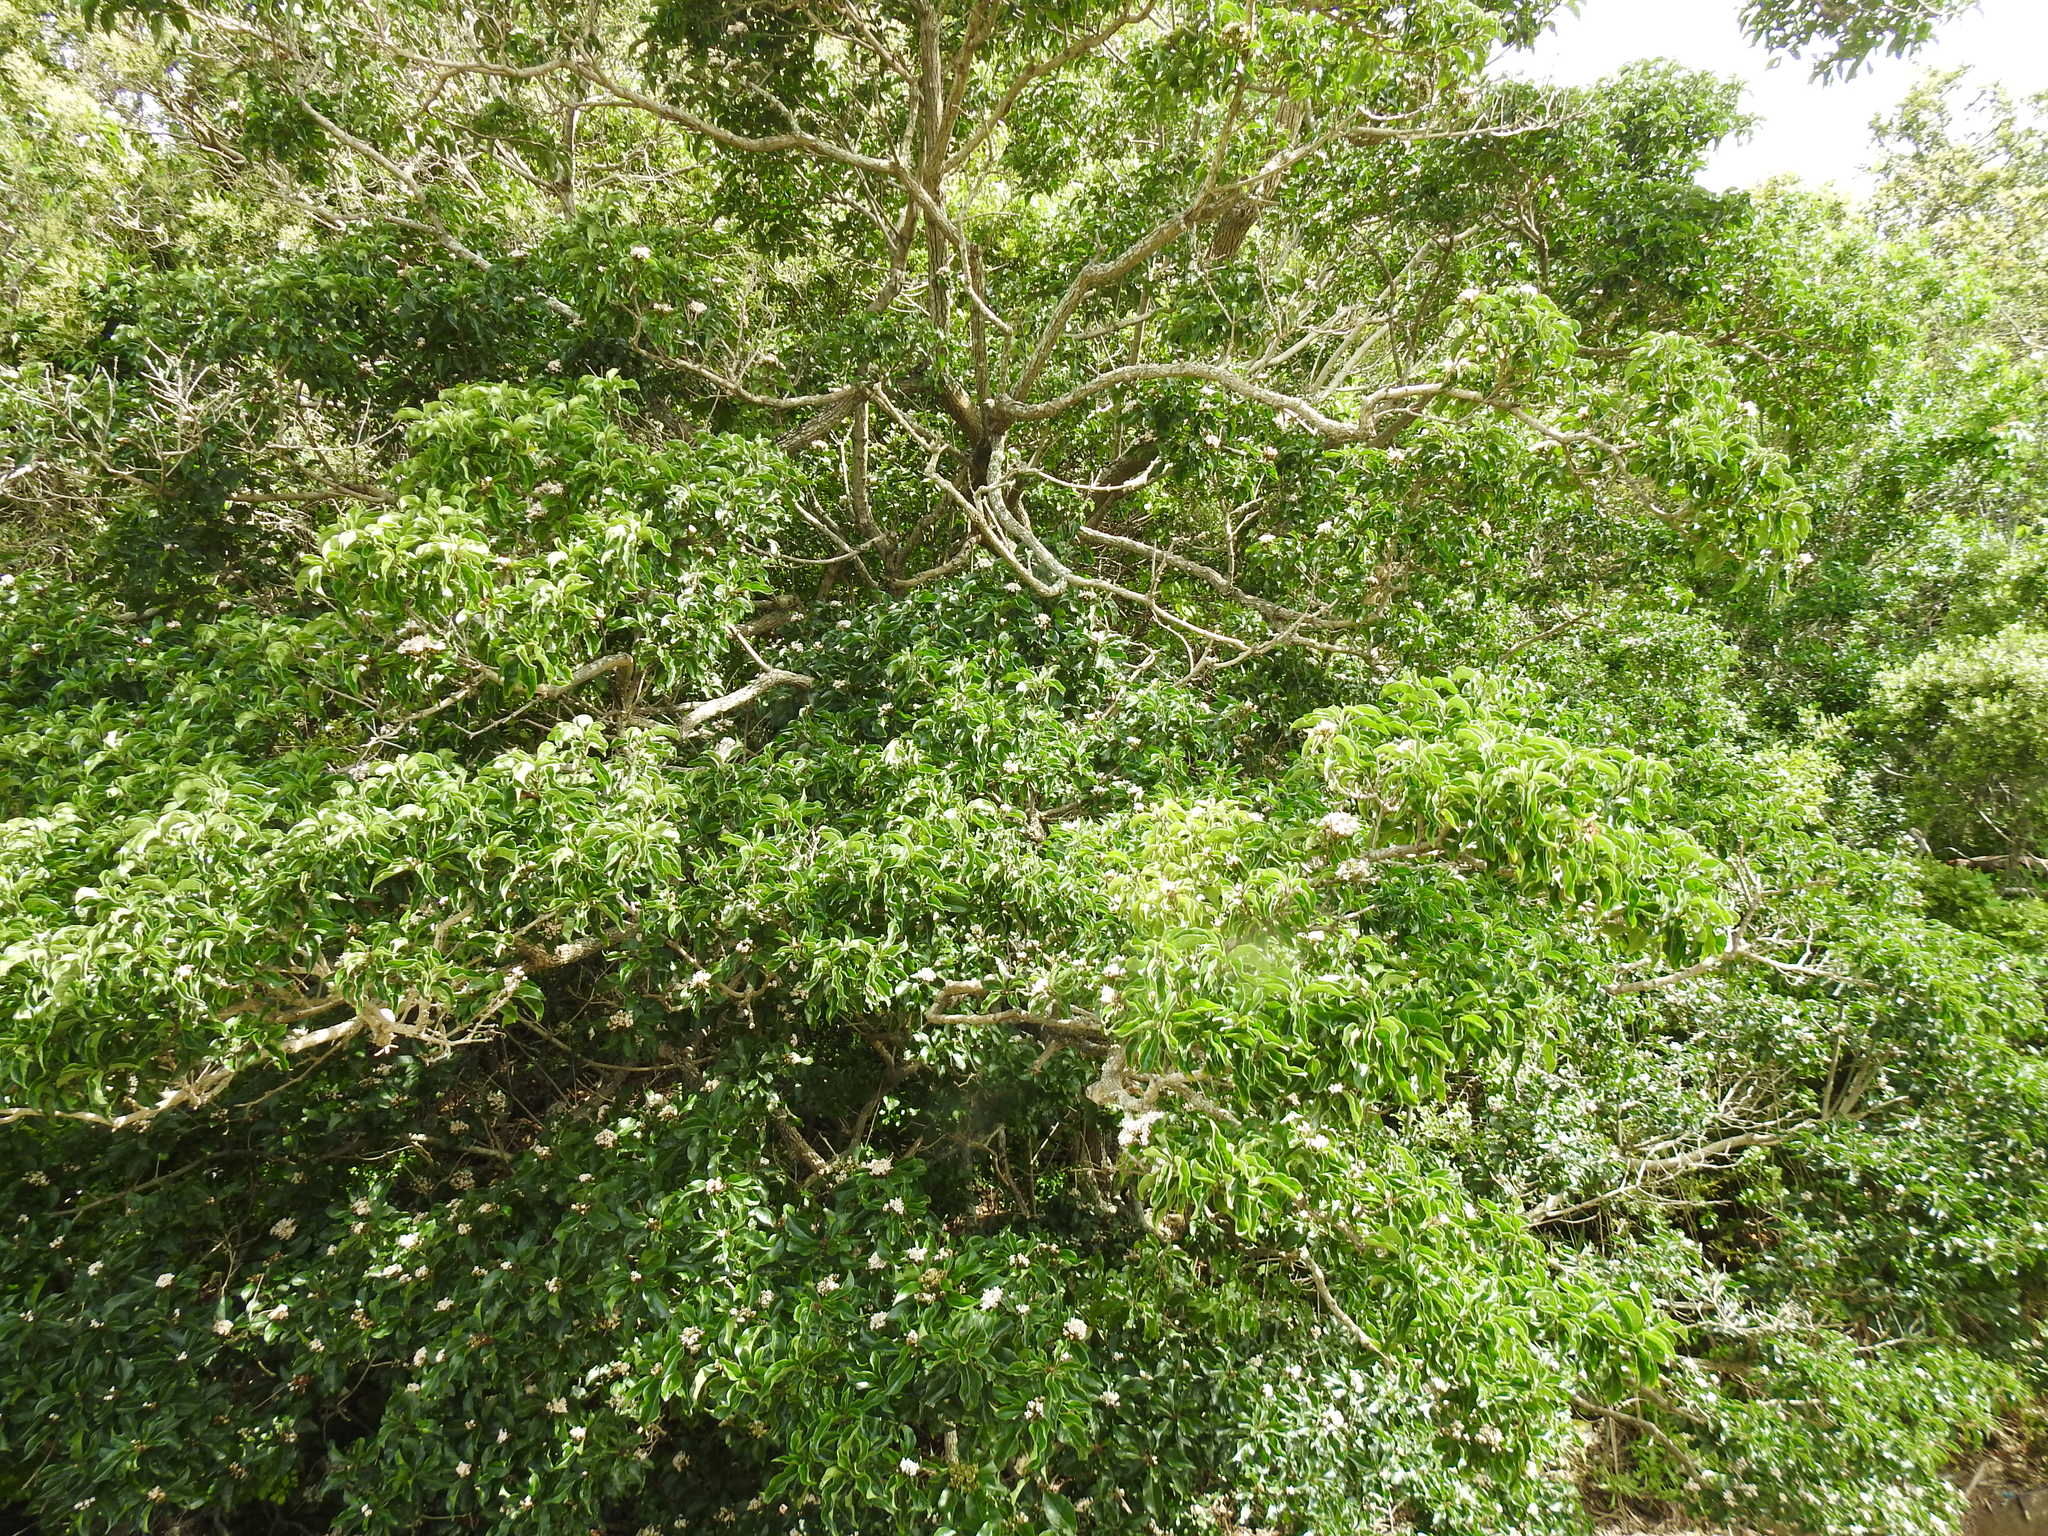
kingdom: Plantae
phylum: Tracheophyta
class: Magnoliopsida
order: Lamiales
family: Lamiaceae
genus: Volkameria
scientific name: Volkameria glabra
